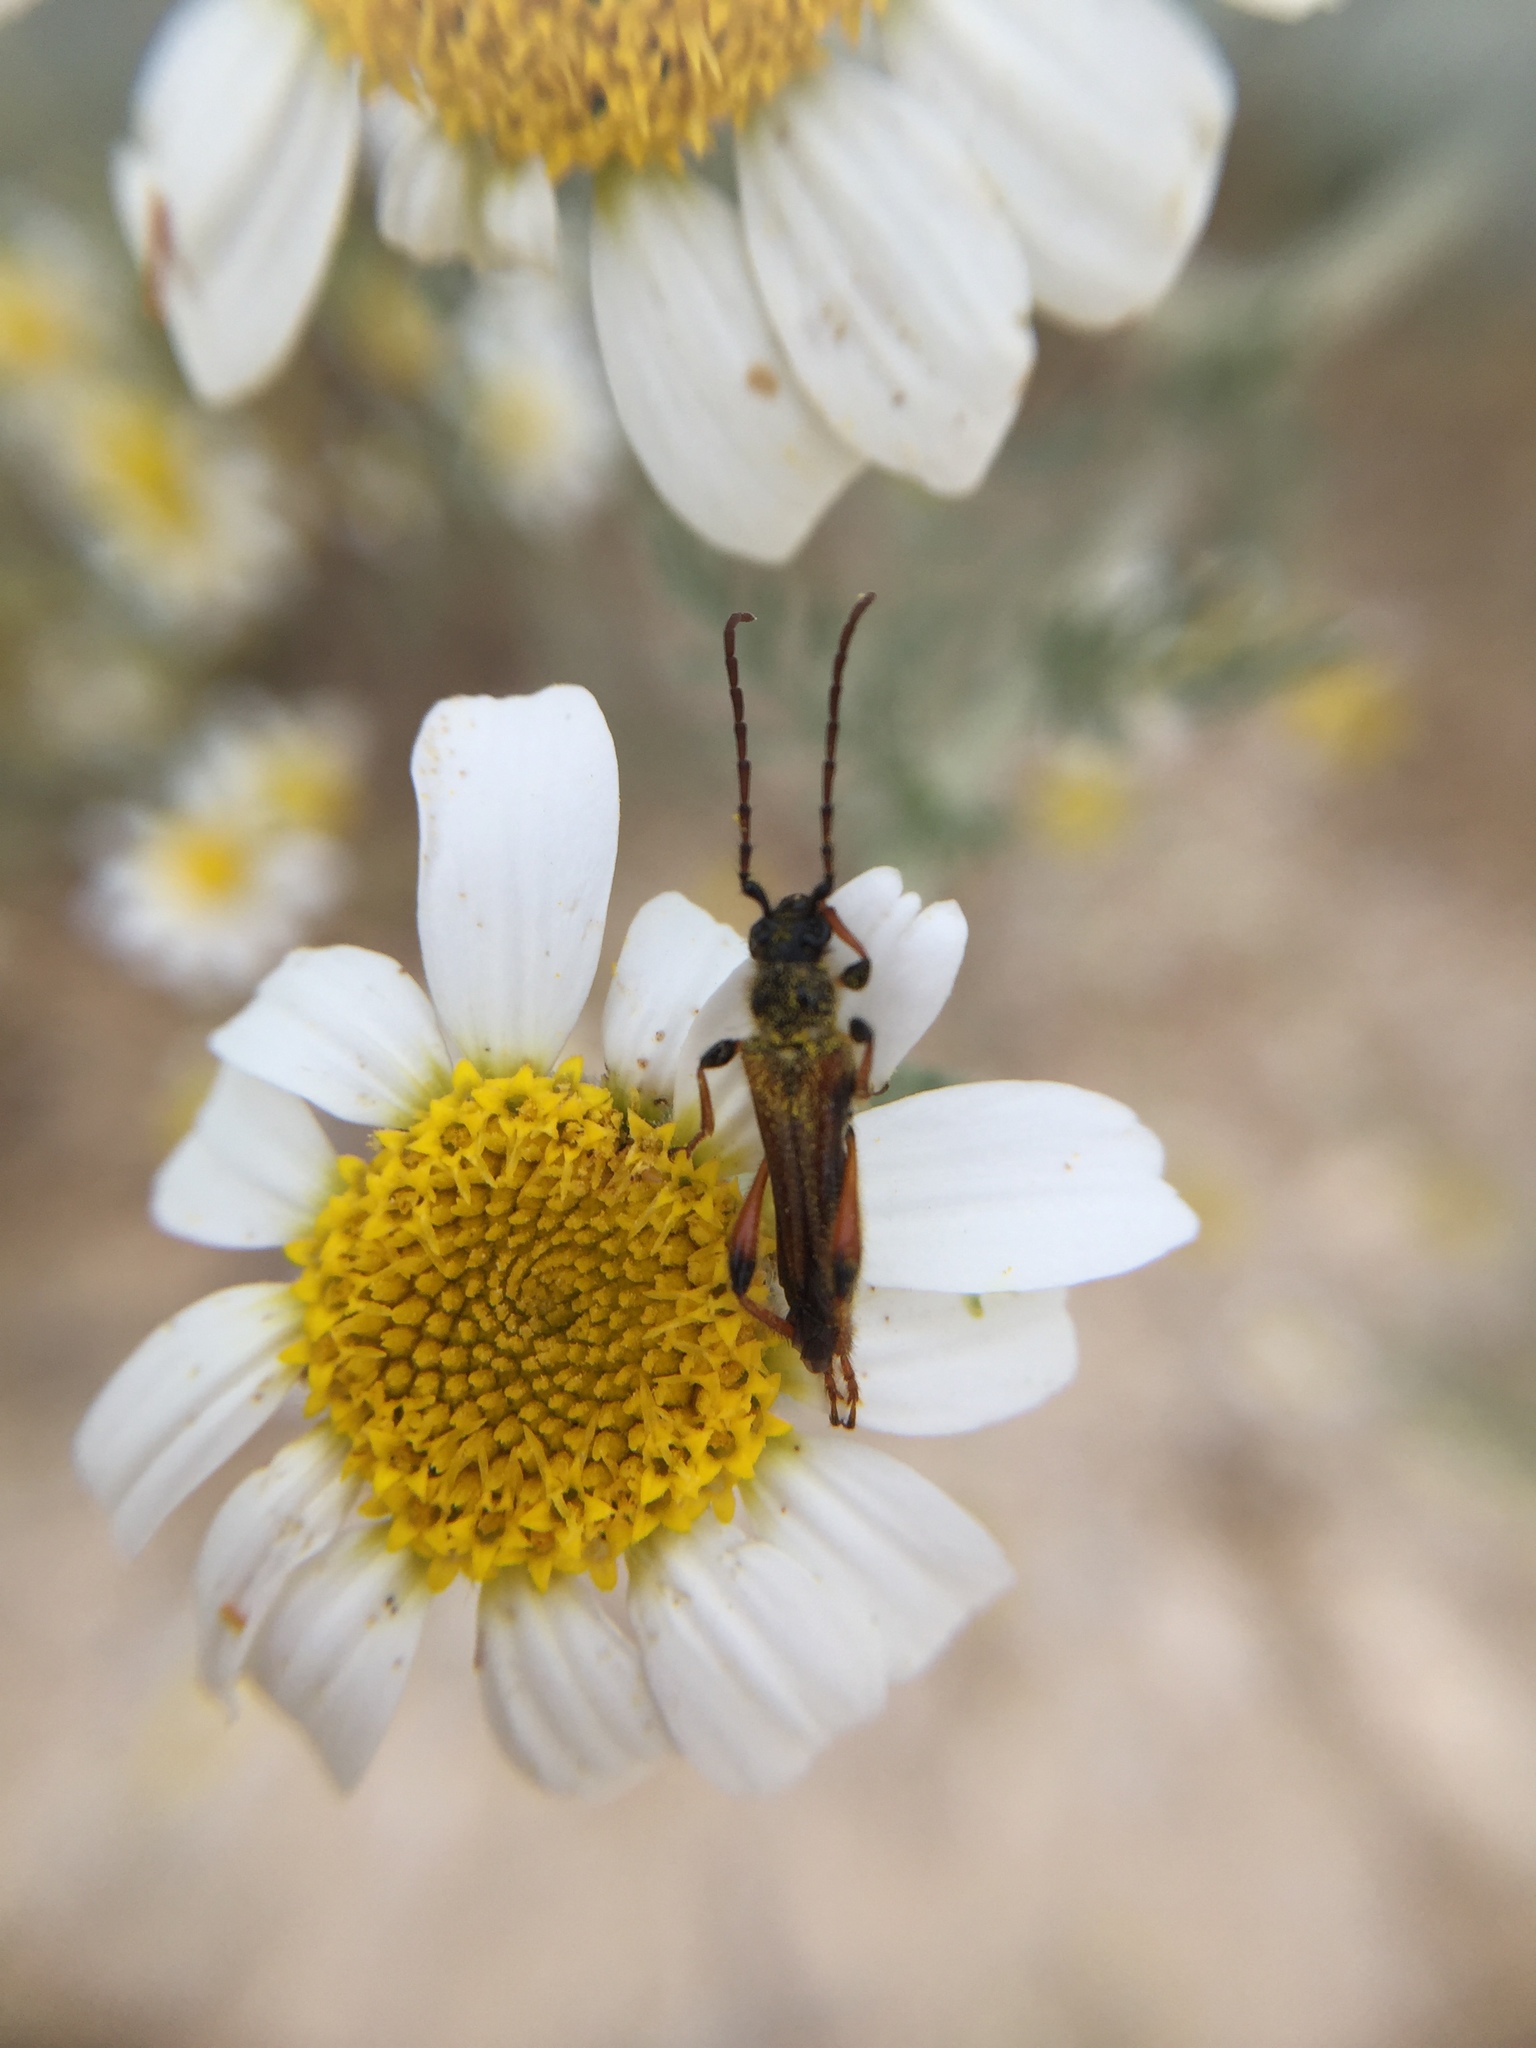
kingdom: Animalia
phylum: Arthropoda
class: Insecta
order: Coleoptera
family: Cerambycidae
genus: Stenopterus
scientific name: Stenopterus rufus
